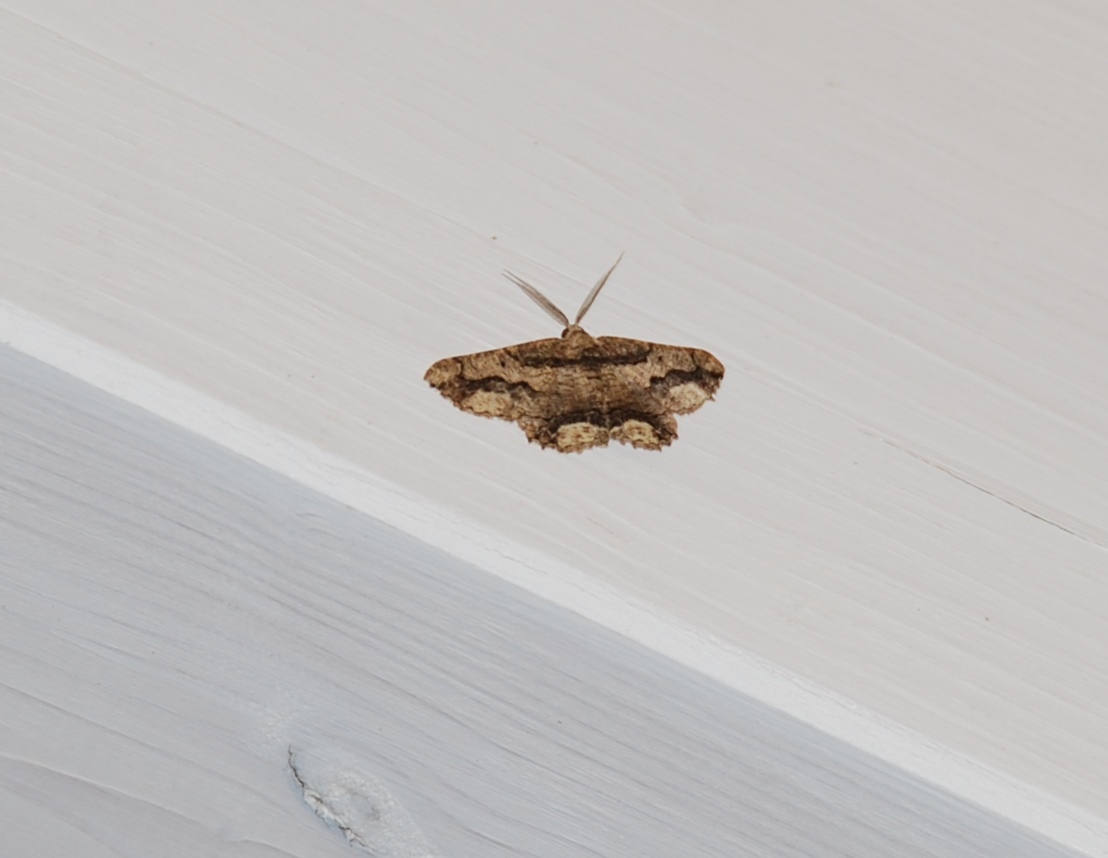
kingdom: Animalia
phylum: Arthropoda
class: Insecta
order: Lepidoptera
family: Geometridae
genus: Menophra
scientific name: Menophra japygiaria
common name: Brassy waved umber
